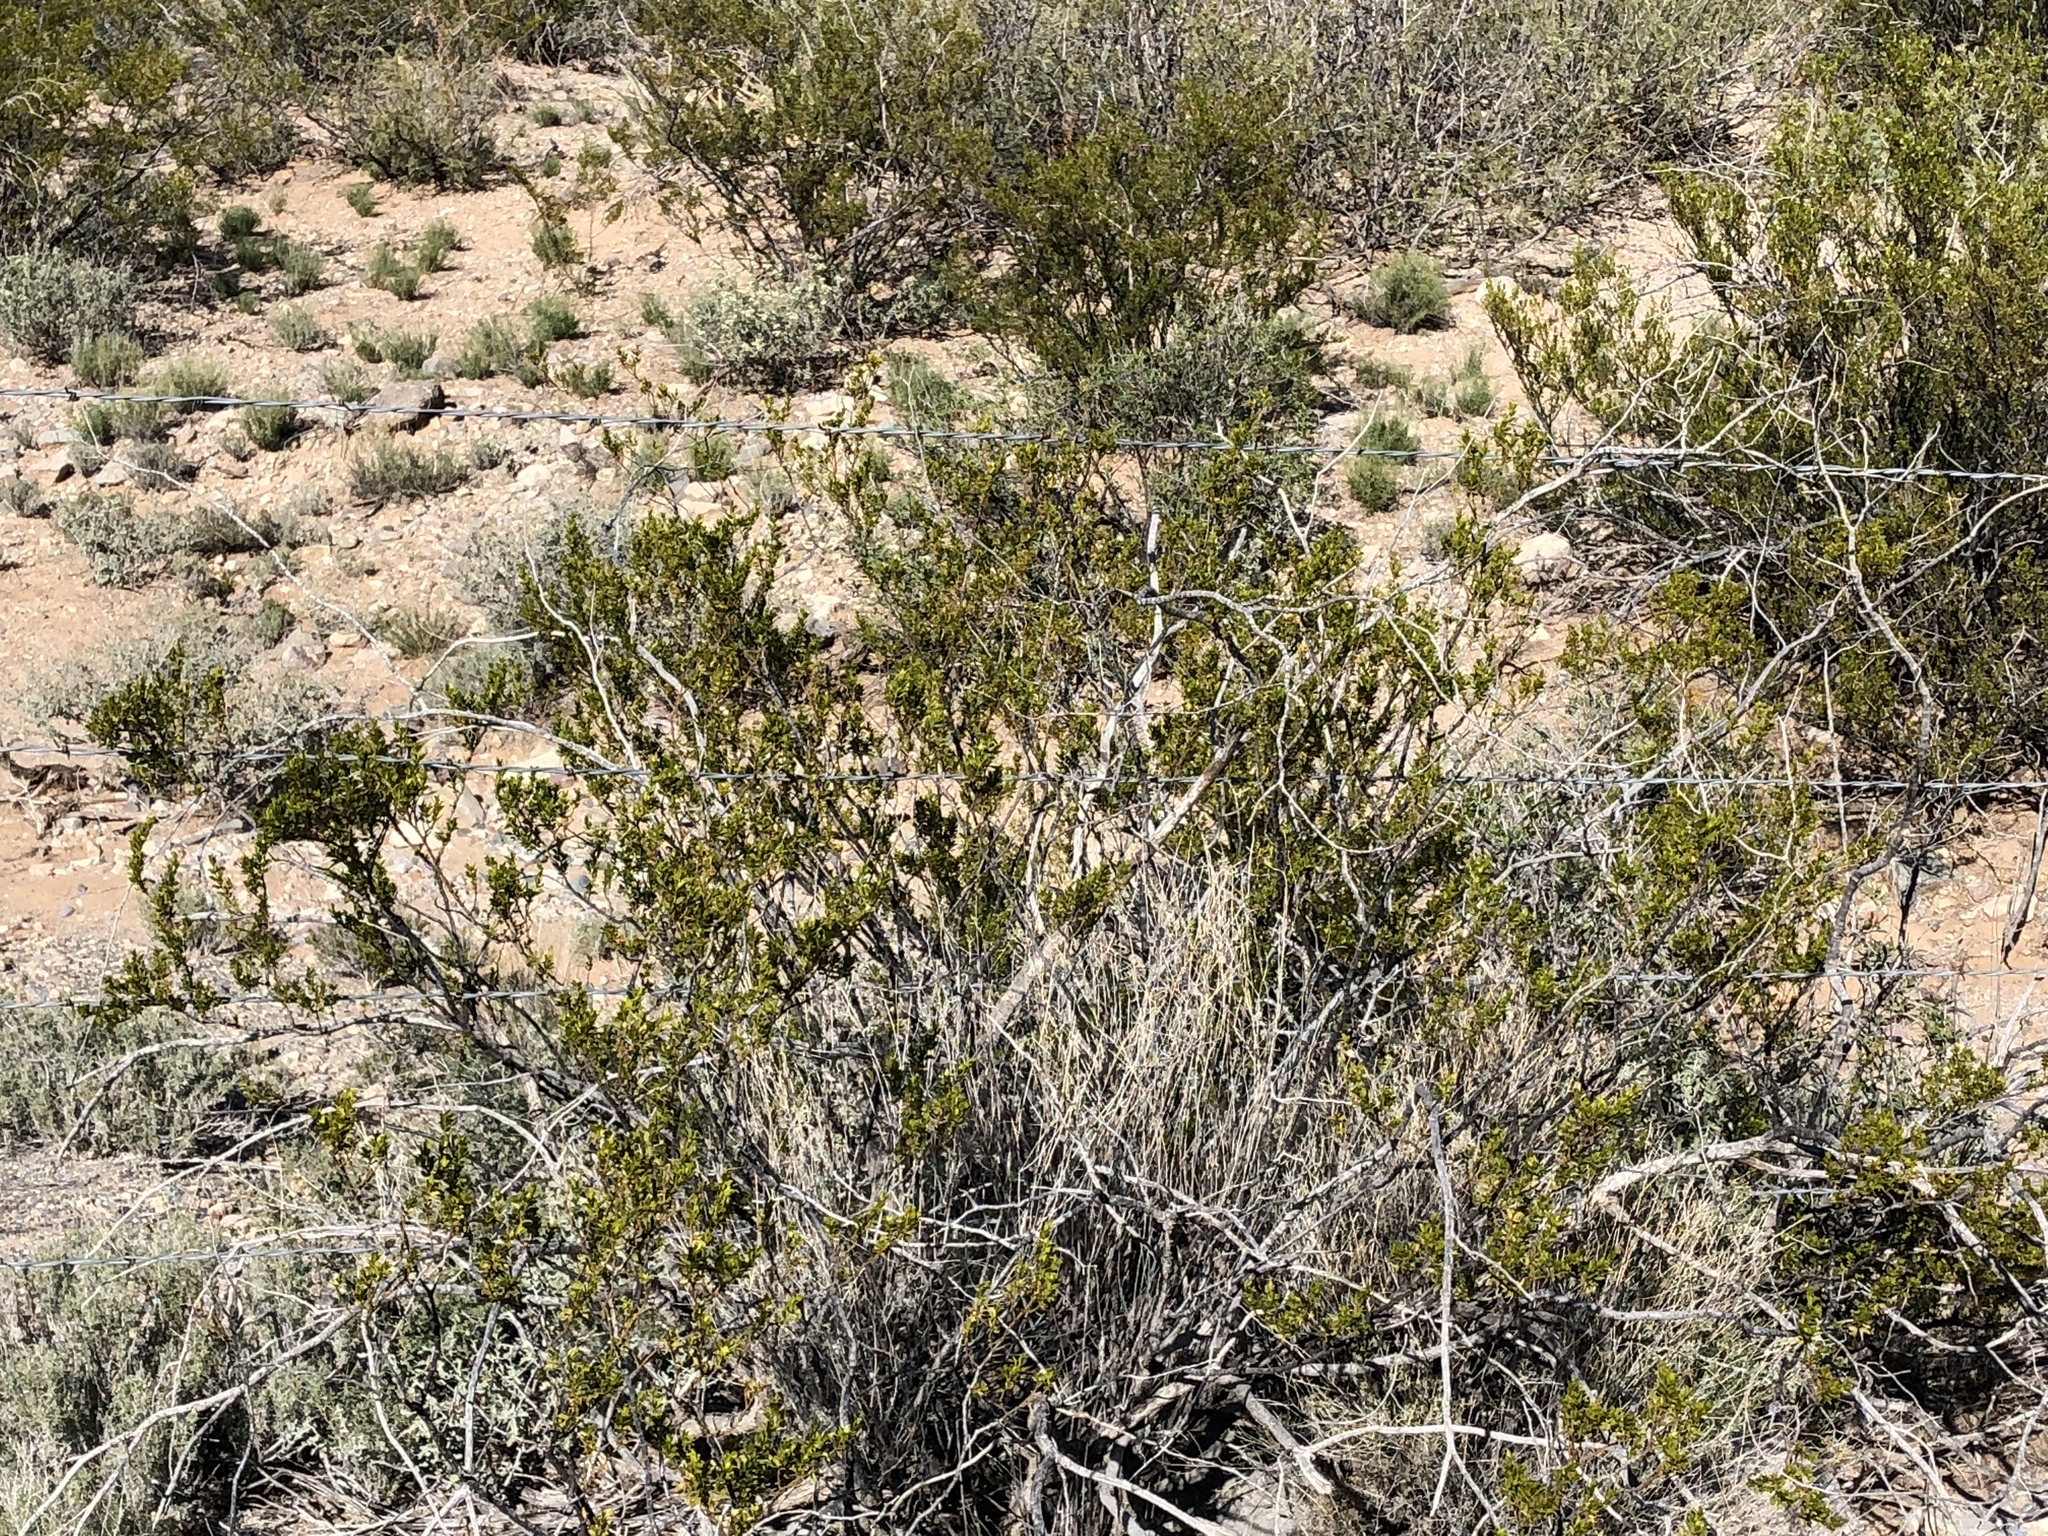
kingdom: Plantae
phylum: Tracheophyta
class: Magnoliopsida
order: Zygophyllales
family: Zygophyllaceae
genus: Larrea
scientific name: Larrea tridentata
